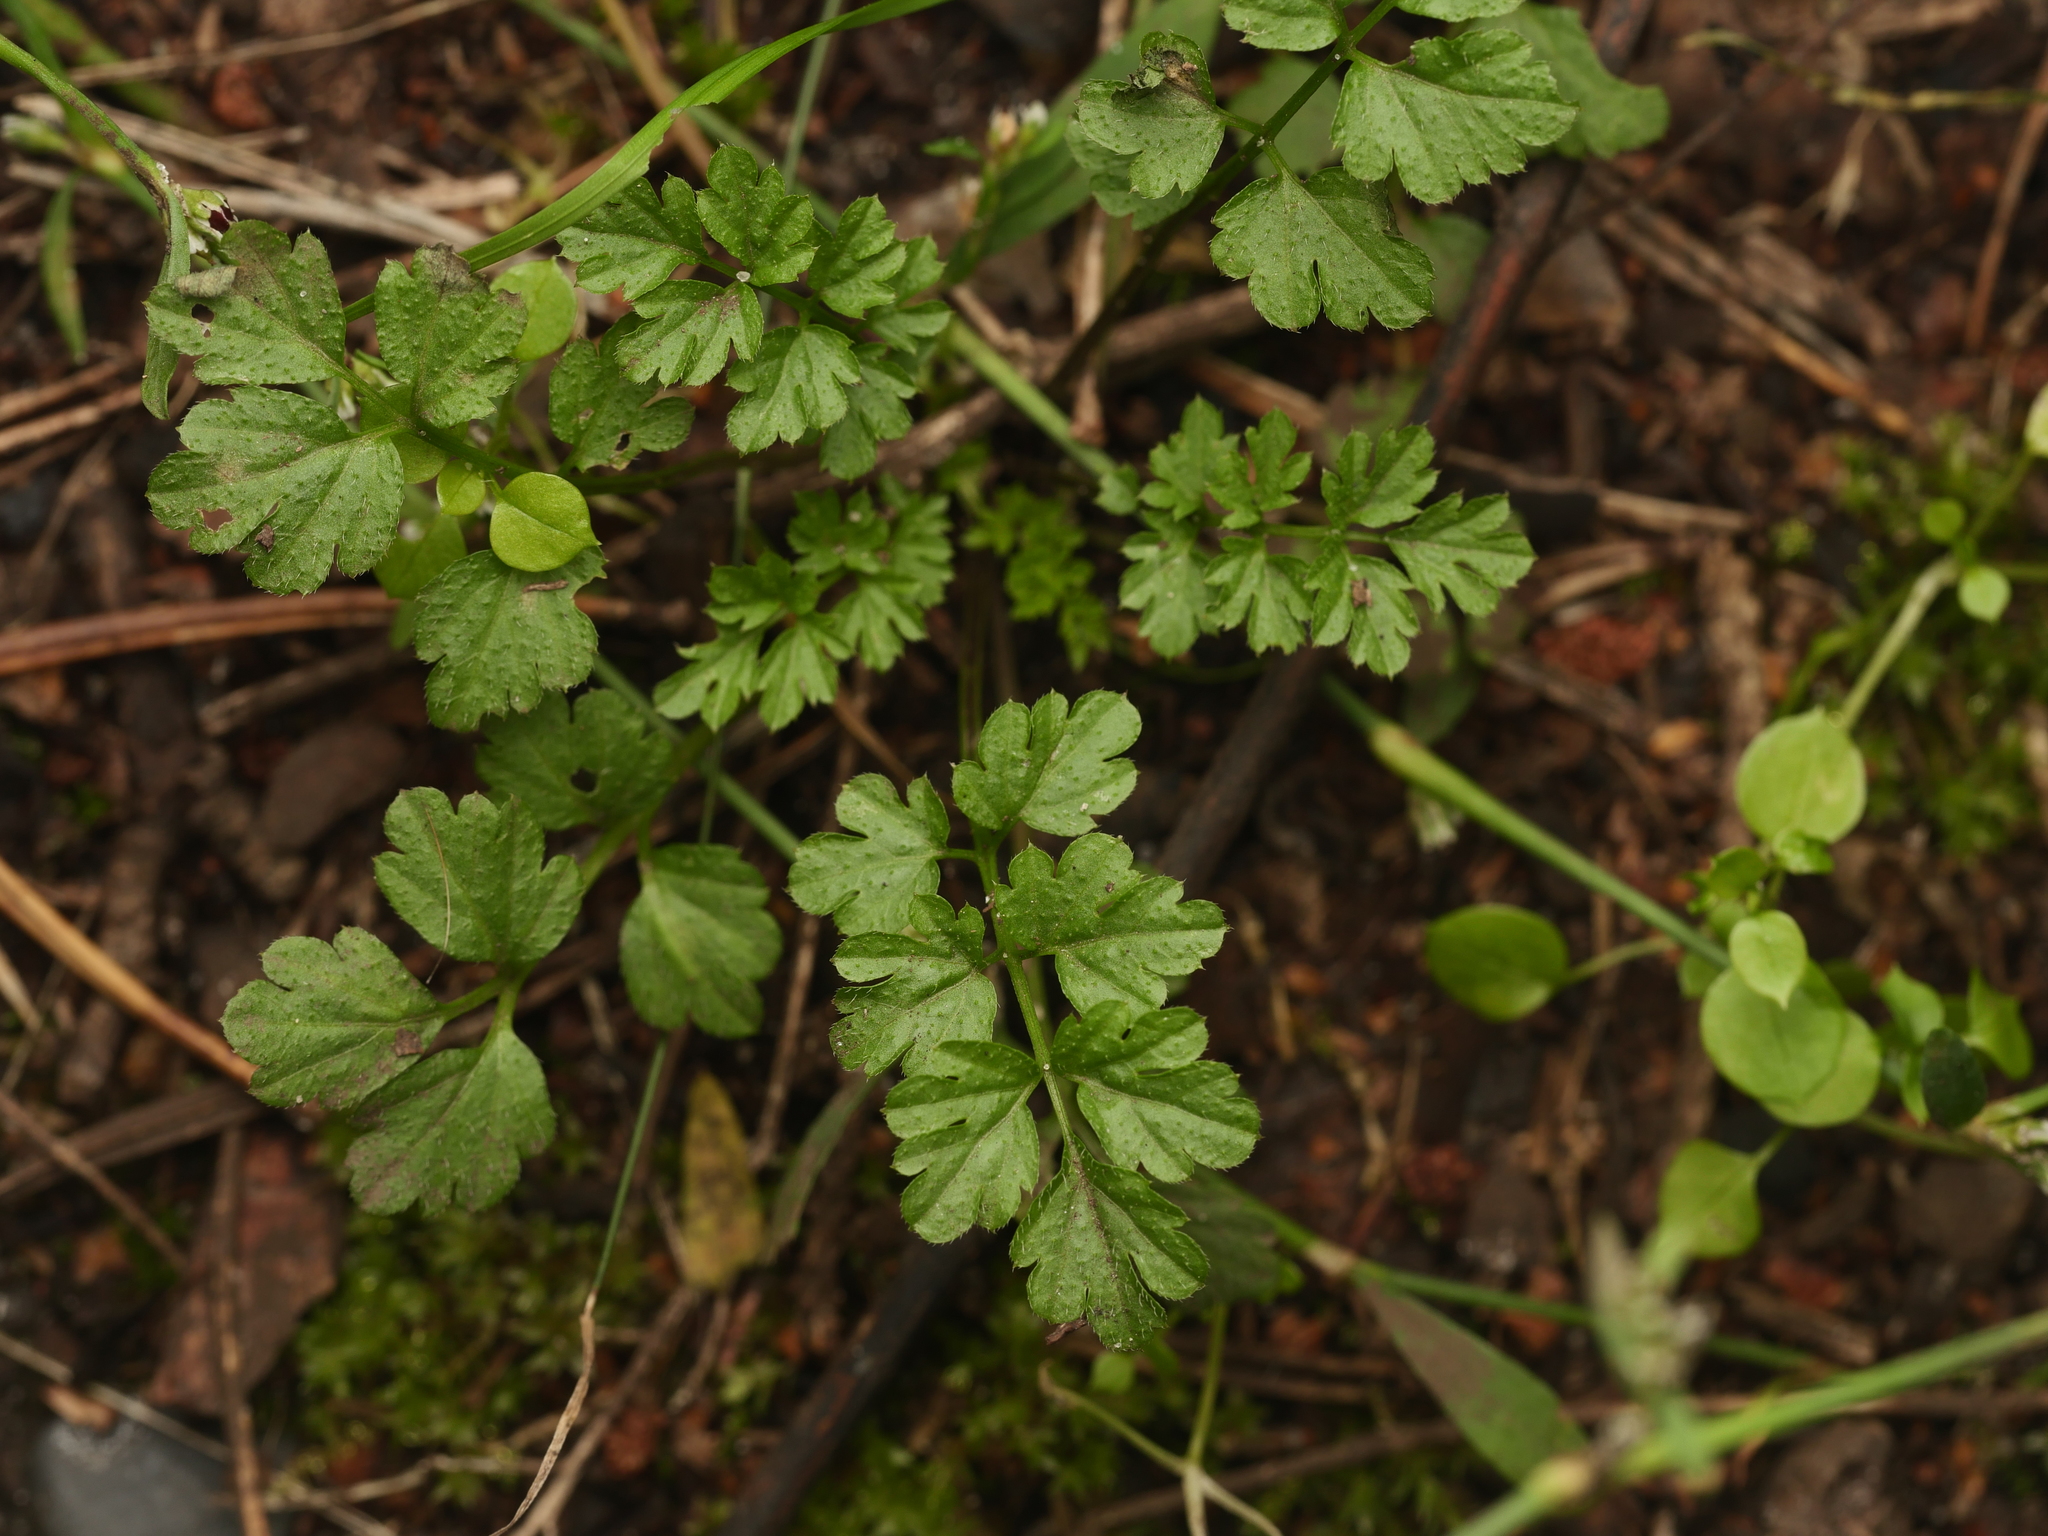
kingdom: Plantae
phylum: Tracheophyta
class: Magnoliopsida
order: Brassicales
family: Brassicaceae
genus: Cardamine
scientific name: Cardamine impatiens
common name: Narrow-leaved bitter-cress
